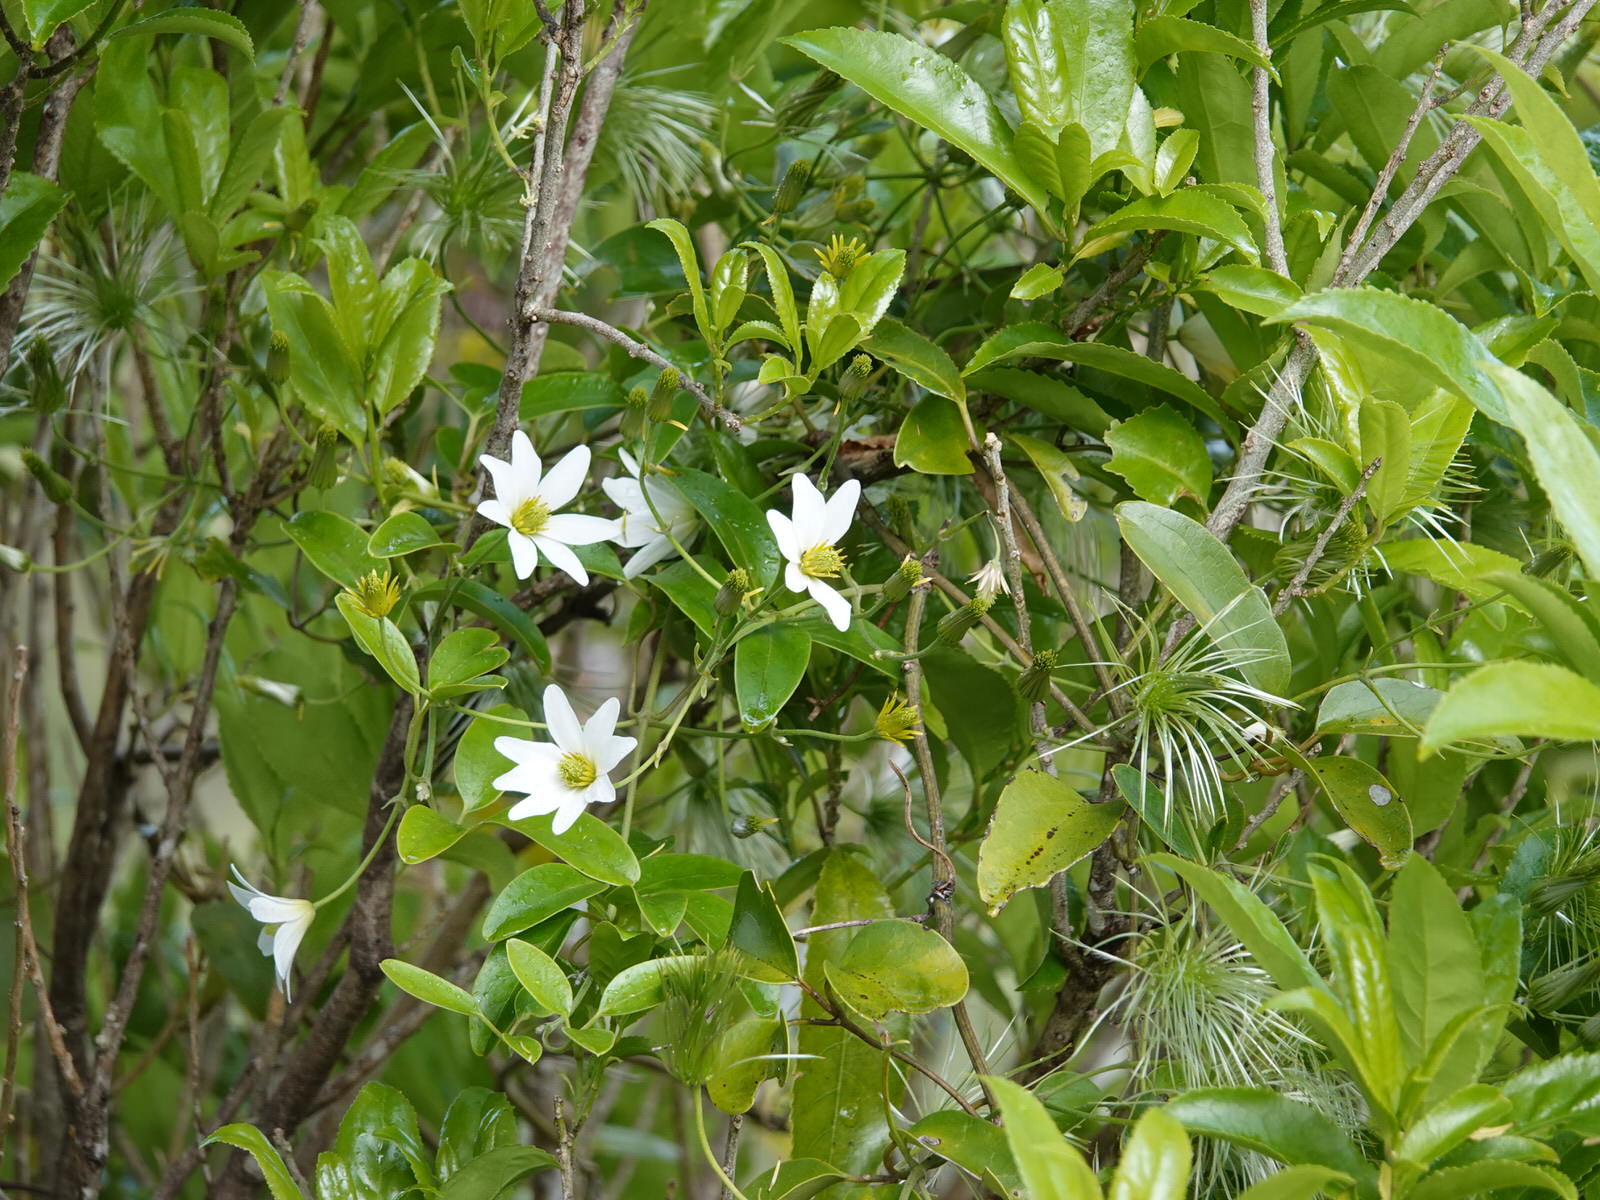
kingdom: Plantae
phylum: Tracheophyta
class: Magnoliopsida
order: Ranunculales
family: Ranunculaceae
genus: Clematis
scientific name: Clematis paniculata
